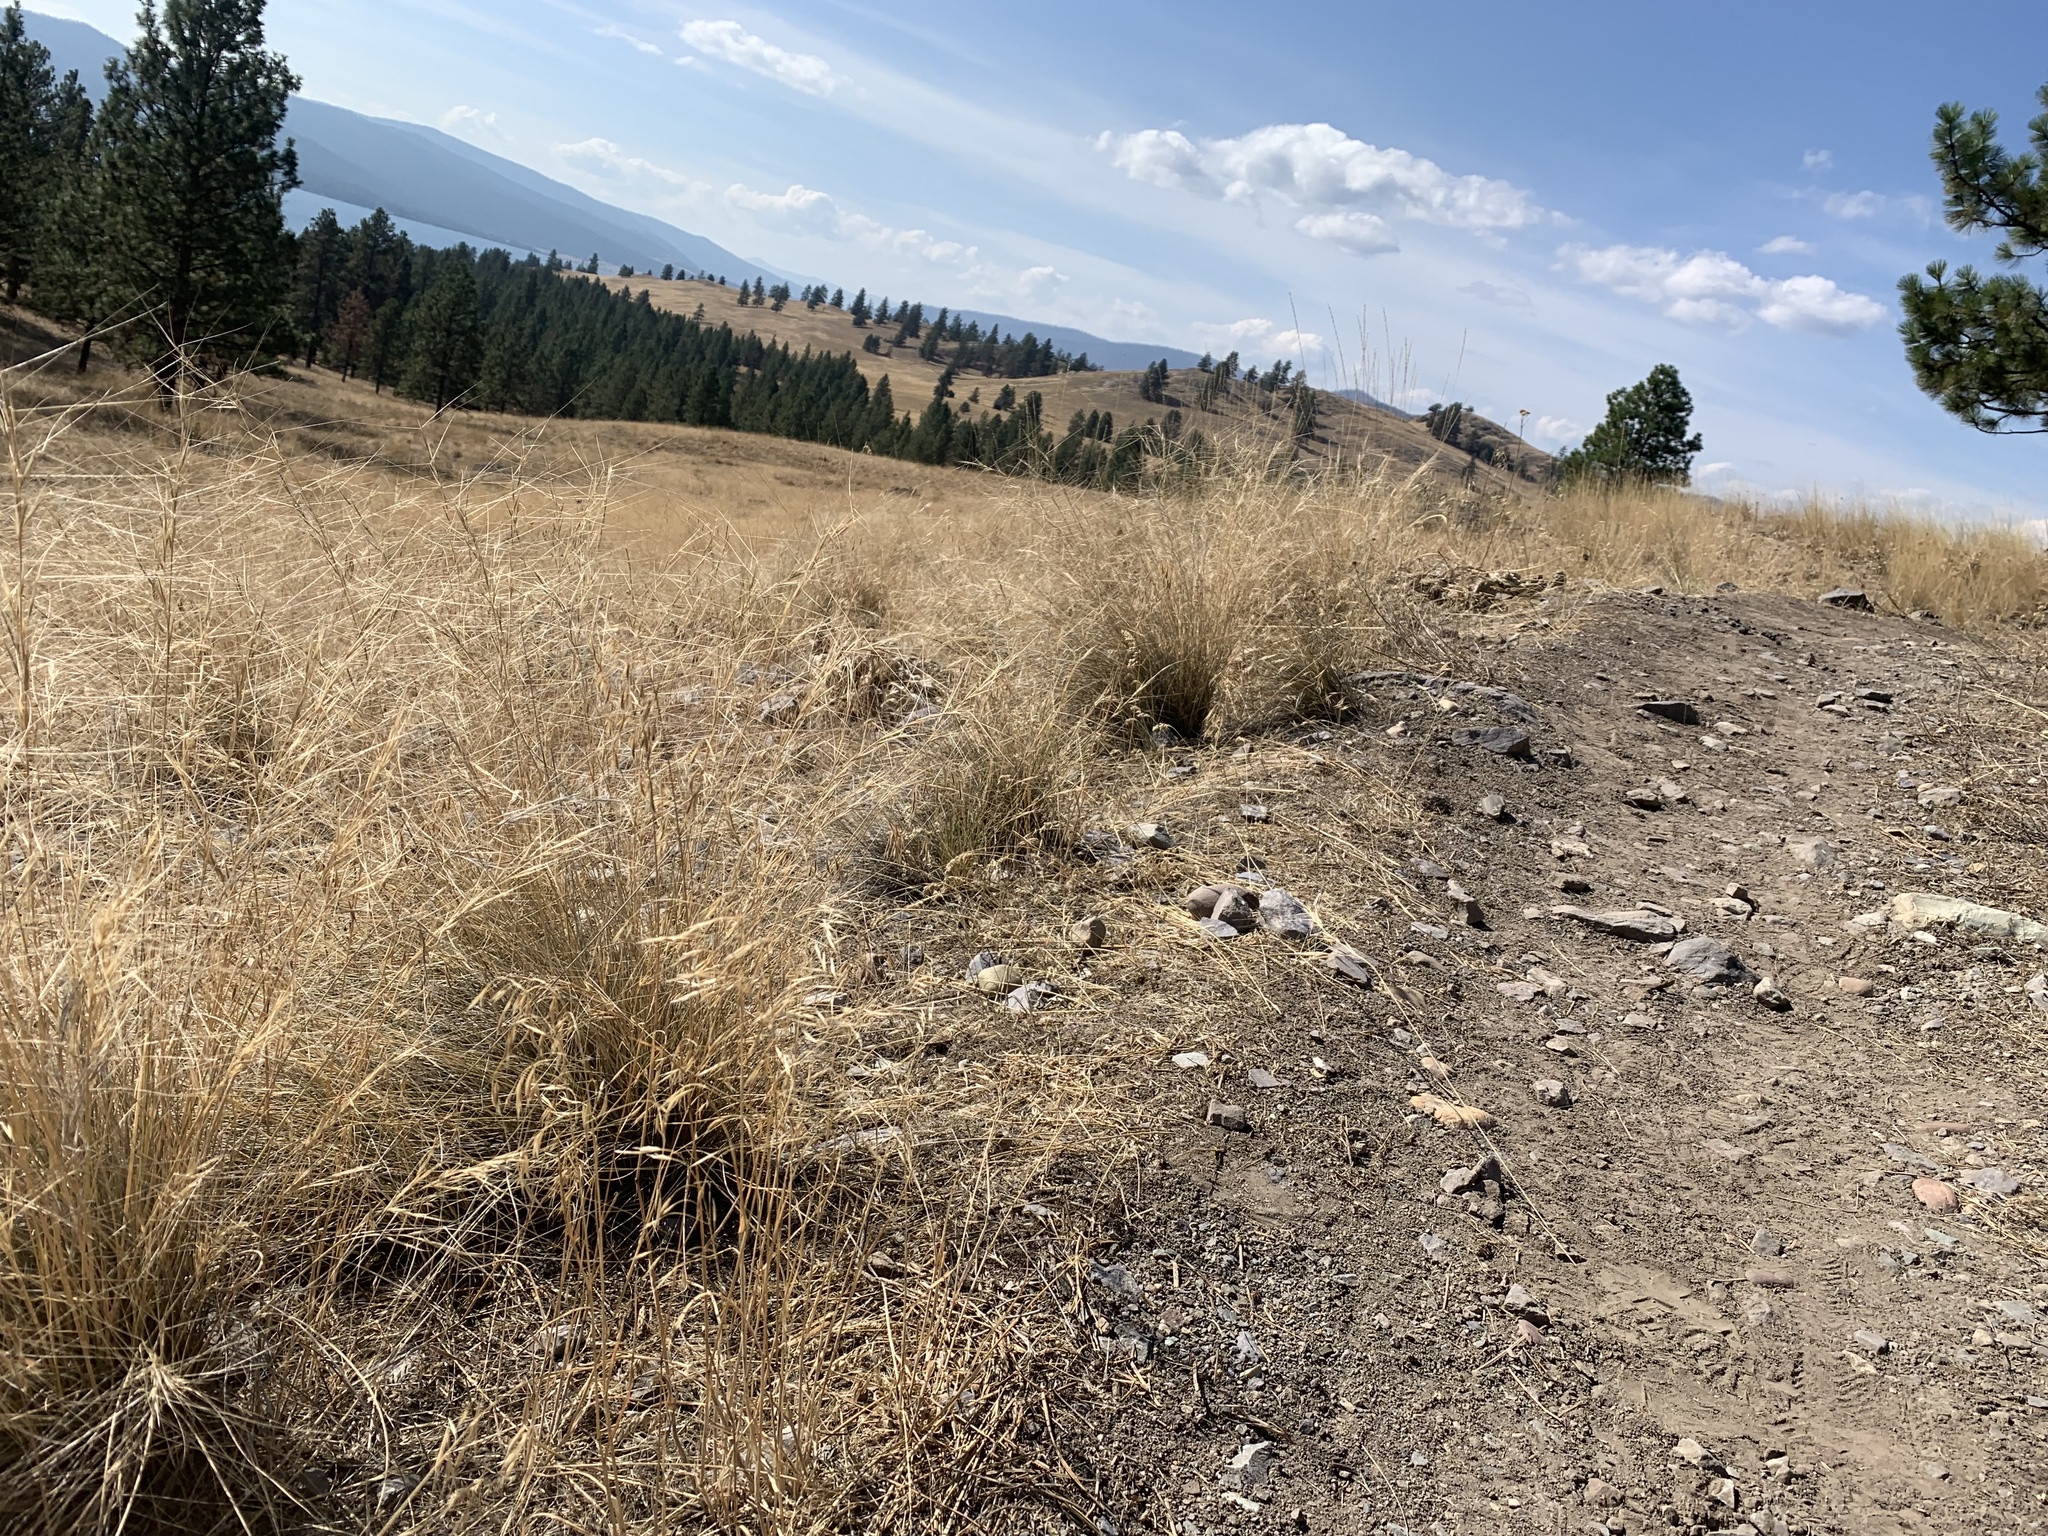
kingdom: Plantae
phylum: Tracheophyta
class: Liliopsida
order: Poales
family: Poaceae
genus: Aristida
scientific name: Aristida purpurea
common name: Purple threeawn
